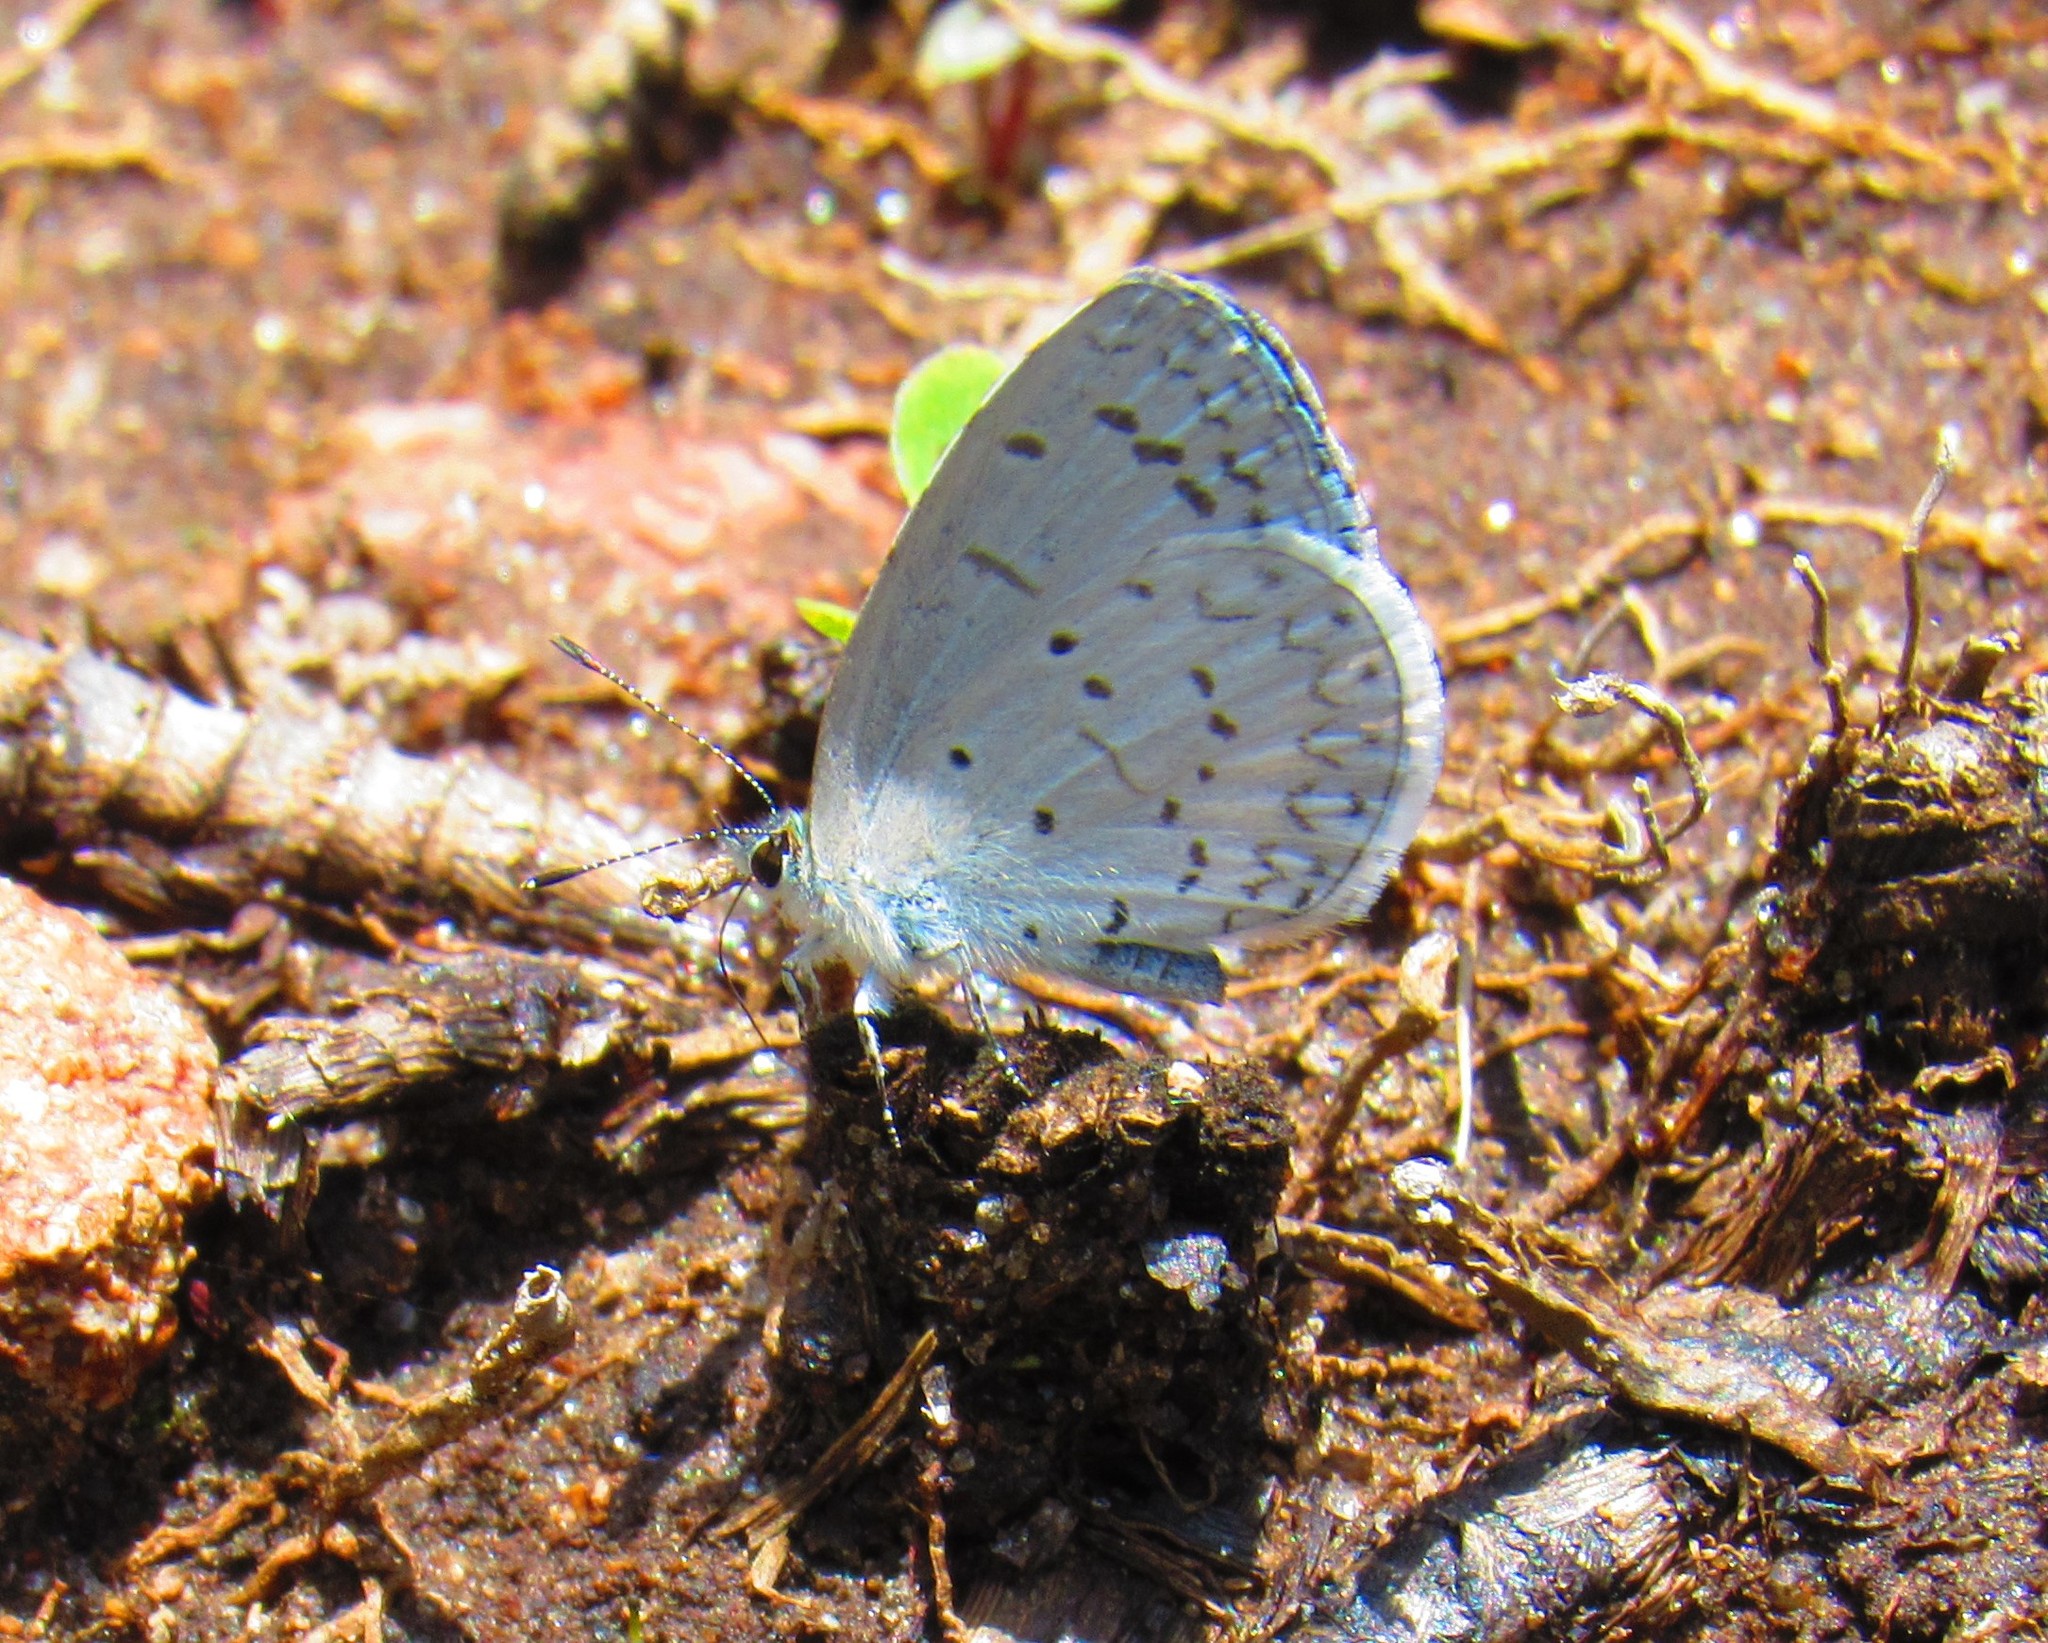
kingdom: Animalia
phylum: Arthropoda
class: Insecta
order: Lepidoptera
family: Lycaenidae
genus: Celastrina
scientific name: Celastrina ladon
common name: Spring azure
